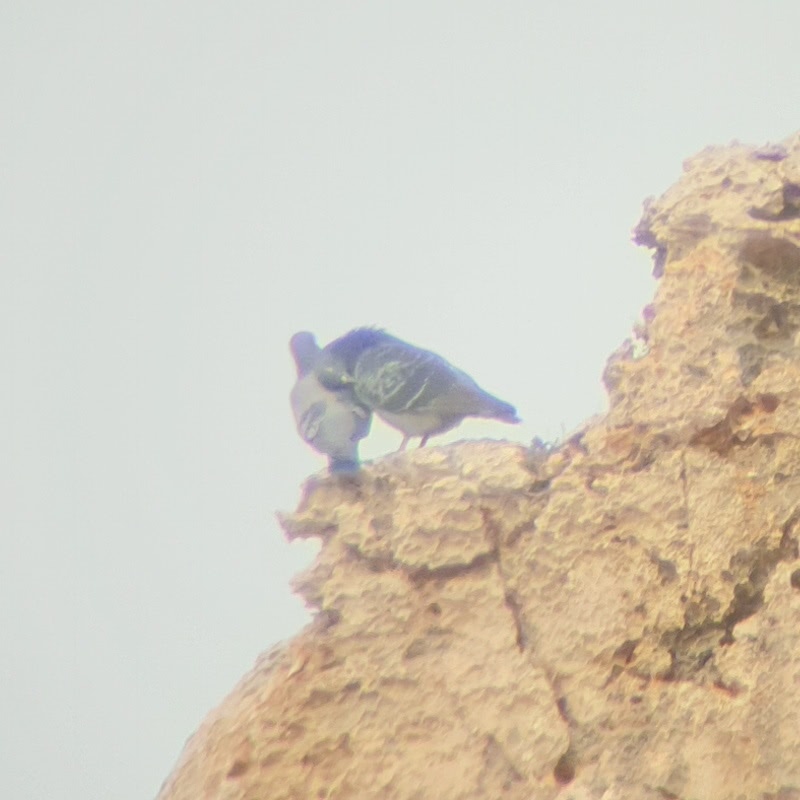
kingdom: Animalia
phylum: Chordata
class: Aves
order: Columbiformes
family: Columbidae
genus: Columba
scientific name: Columba livia
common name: Rock pigeon
